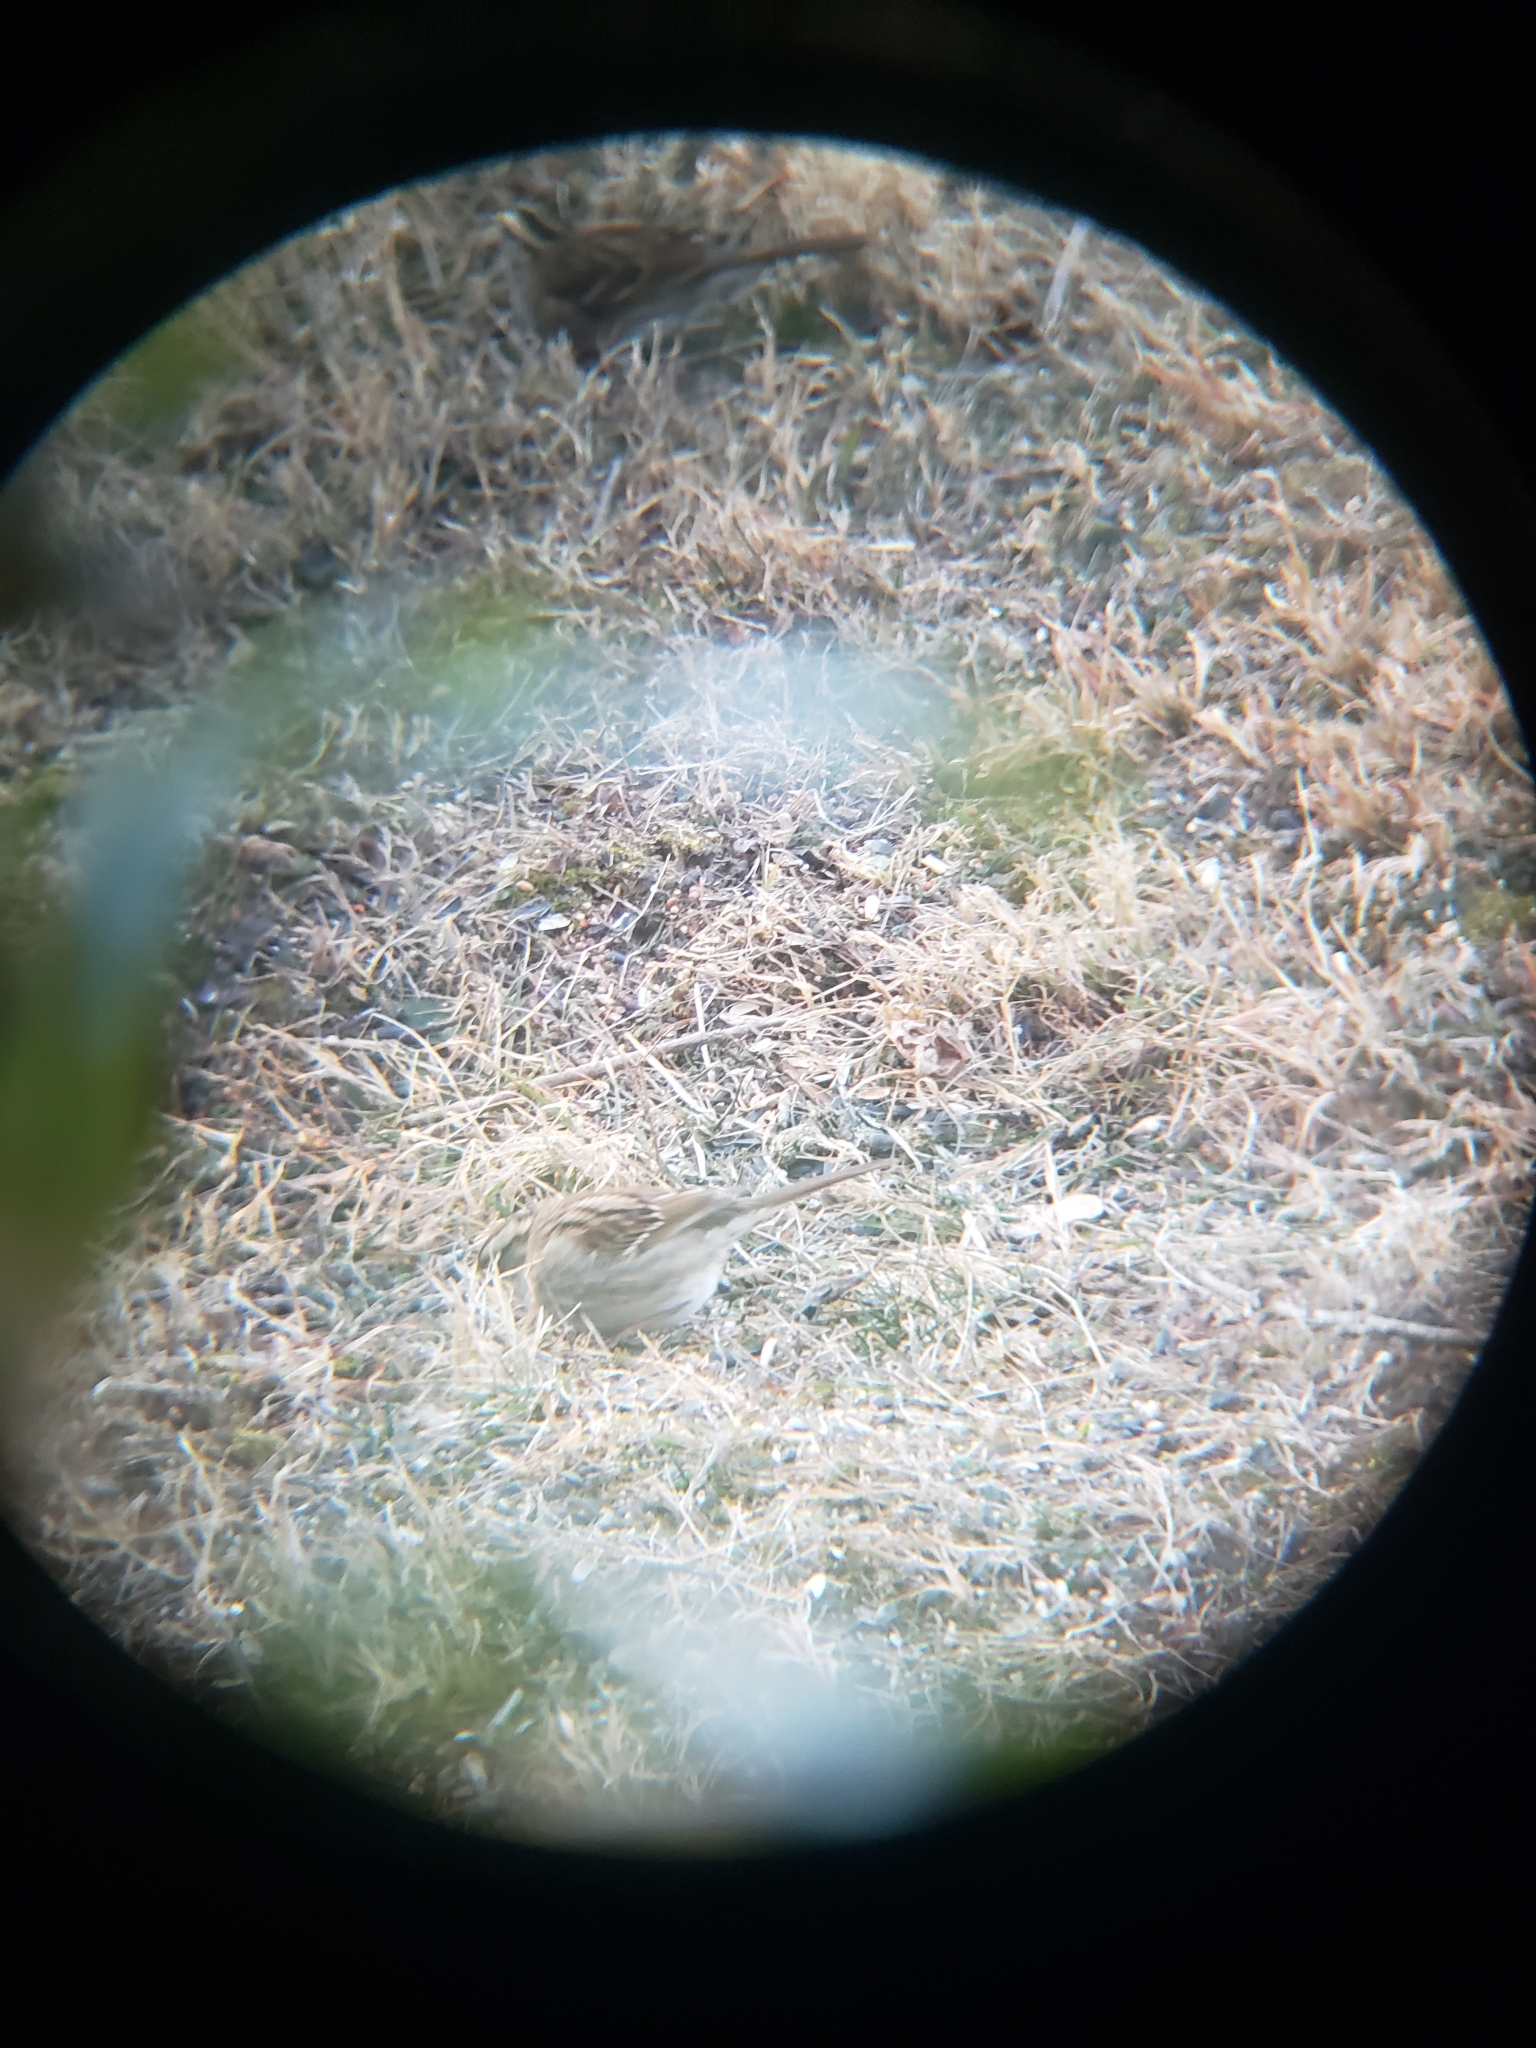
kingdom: Animalia
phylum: Chordata
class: Aves
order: Passeriformes
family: Passerellidae
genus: Zonotrichia
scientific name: Zonotrichia albicollis
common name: White-throated sparrow
